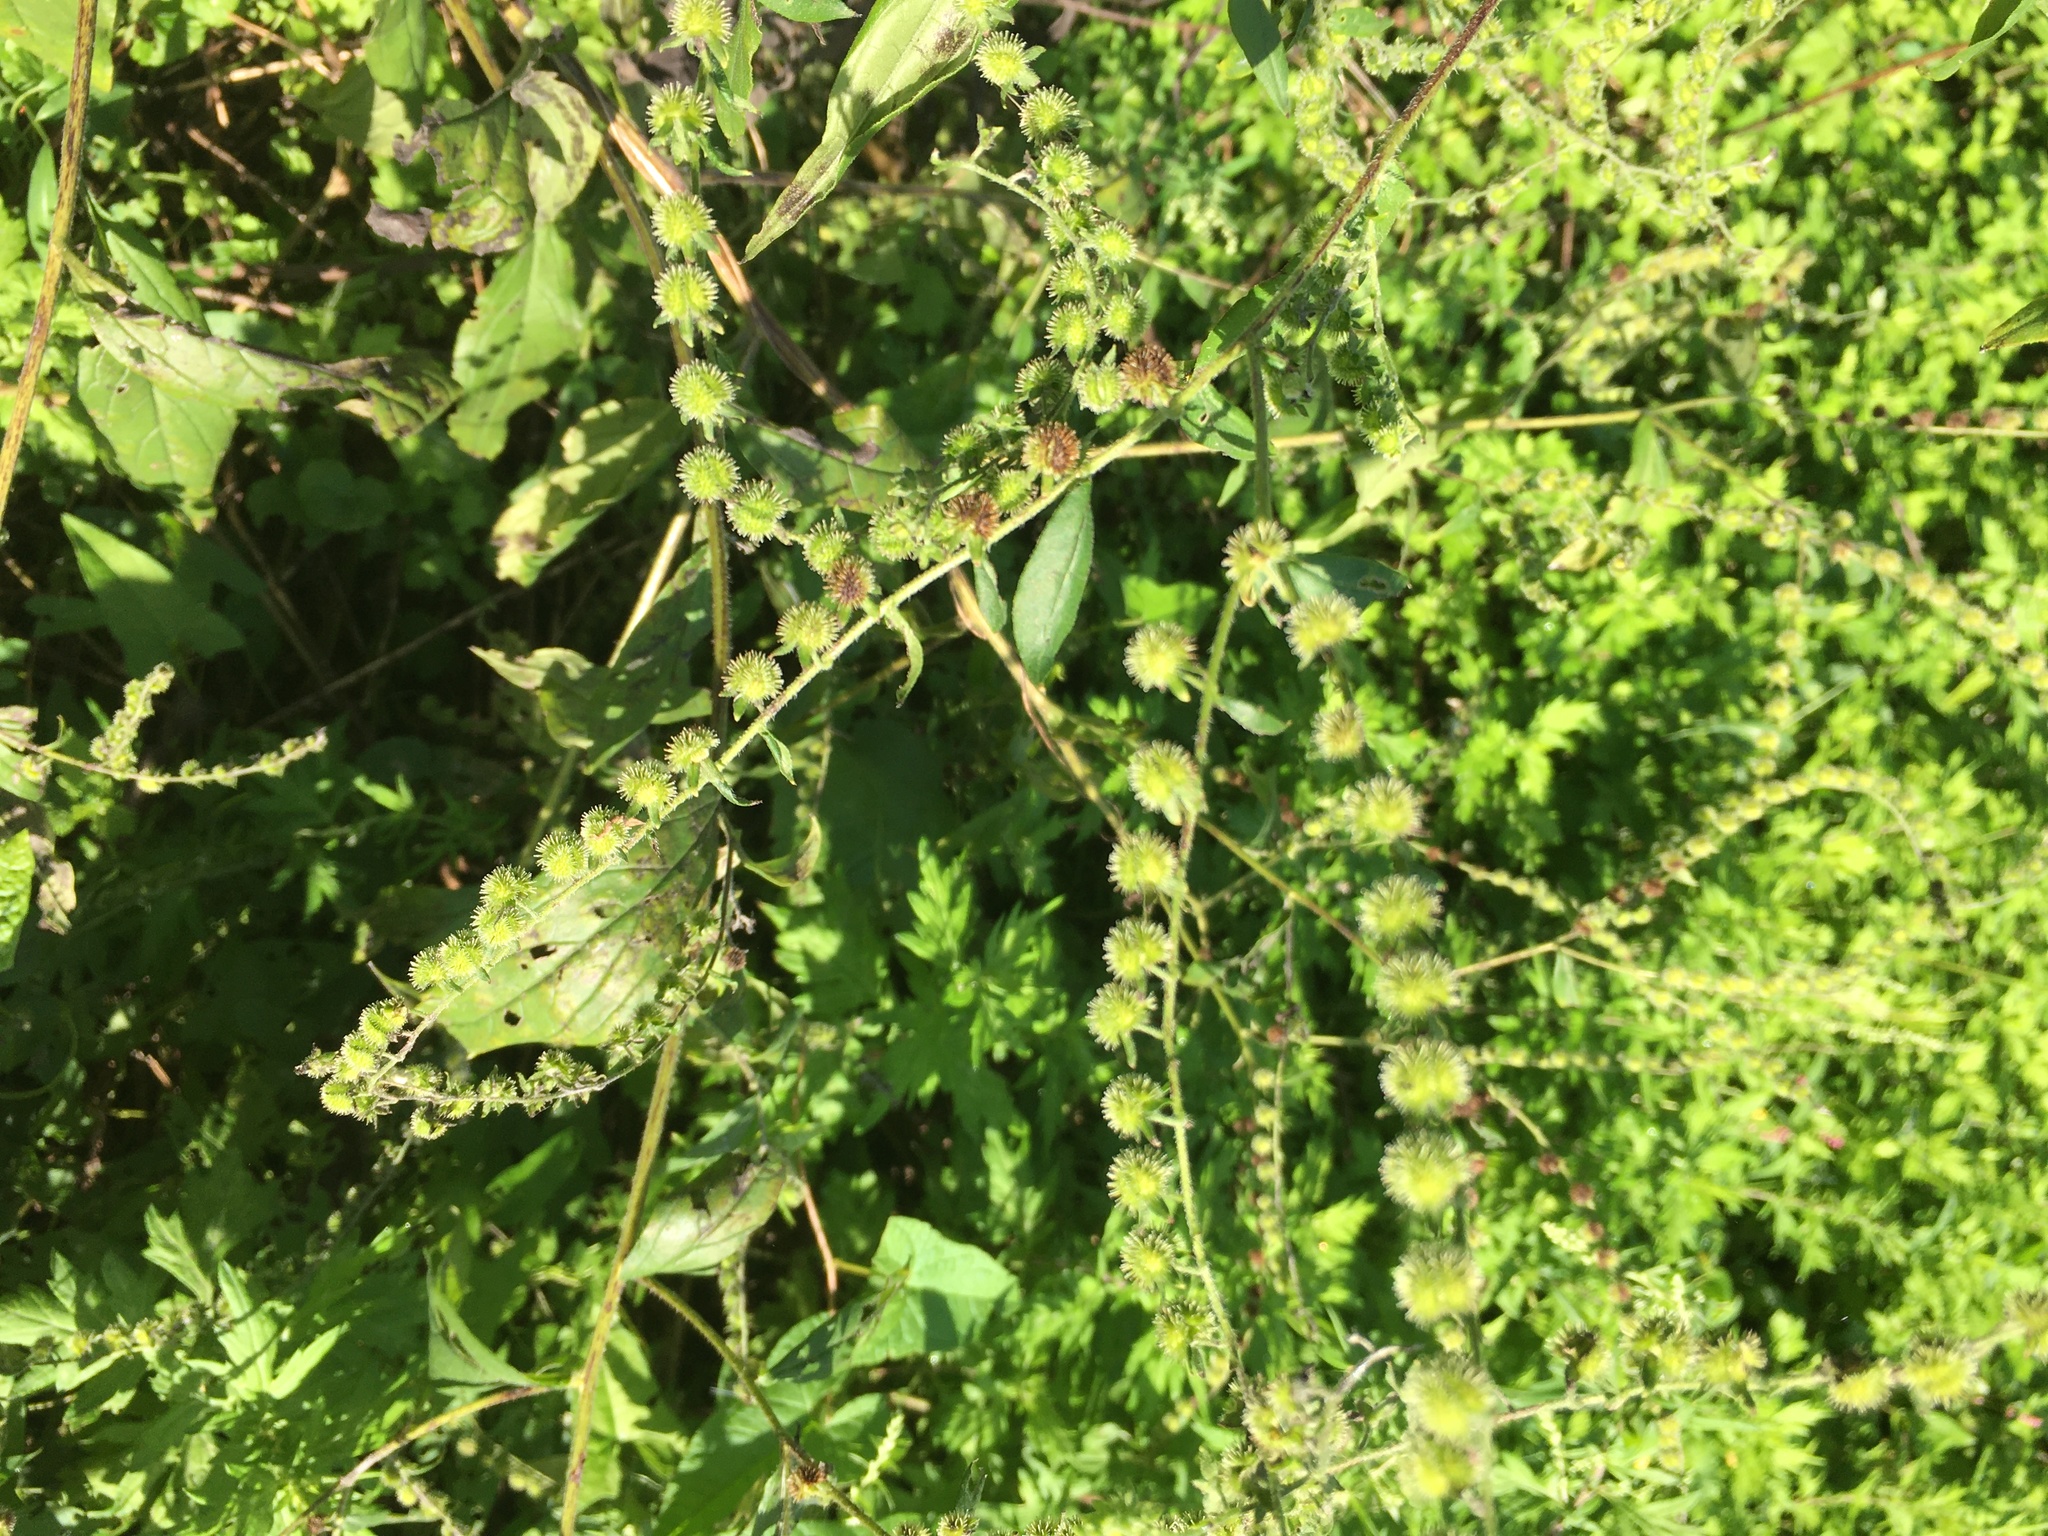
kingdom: Plantae
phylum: Tracheophyta
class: Magnoliopsida
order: Boraginales
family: Boraginaceae
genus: Hackelia
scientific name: Hackelia virginiana
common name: Beggar's-lice
